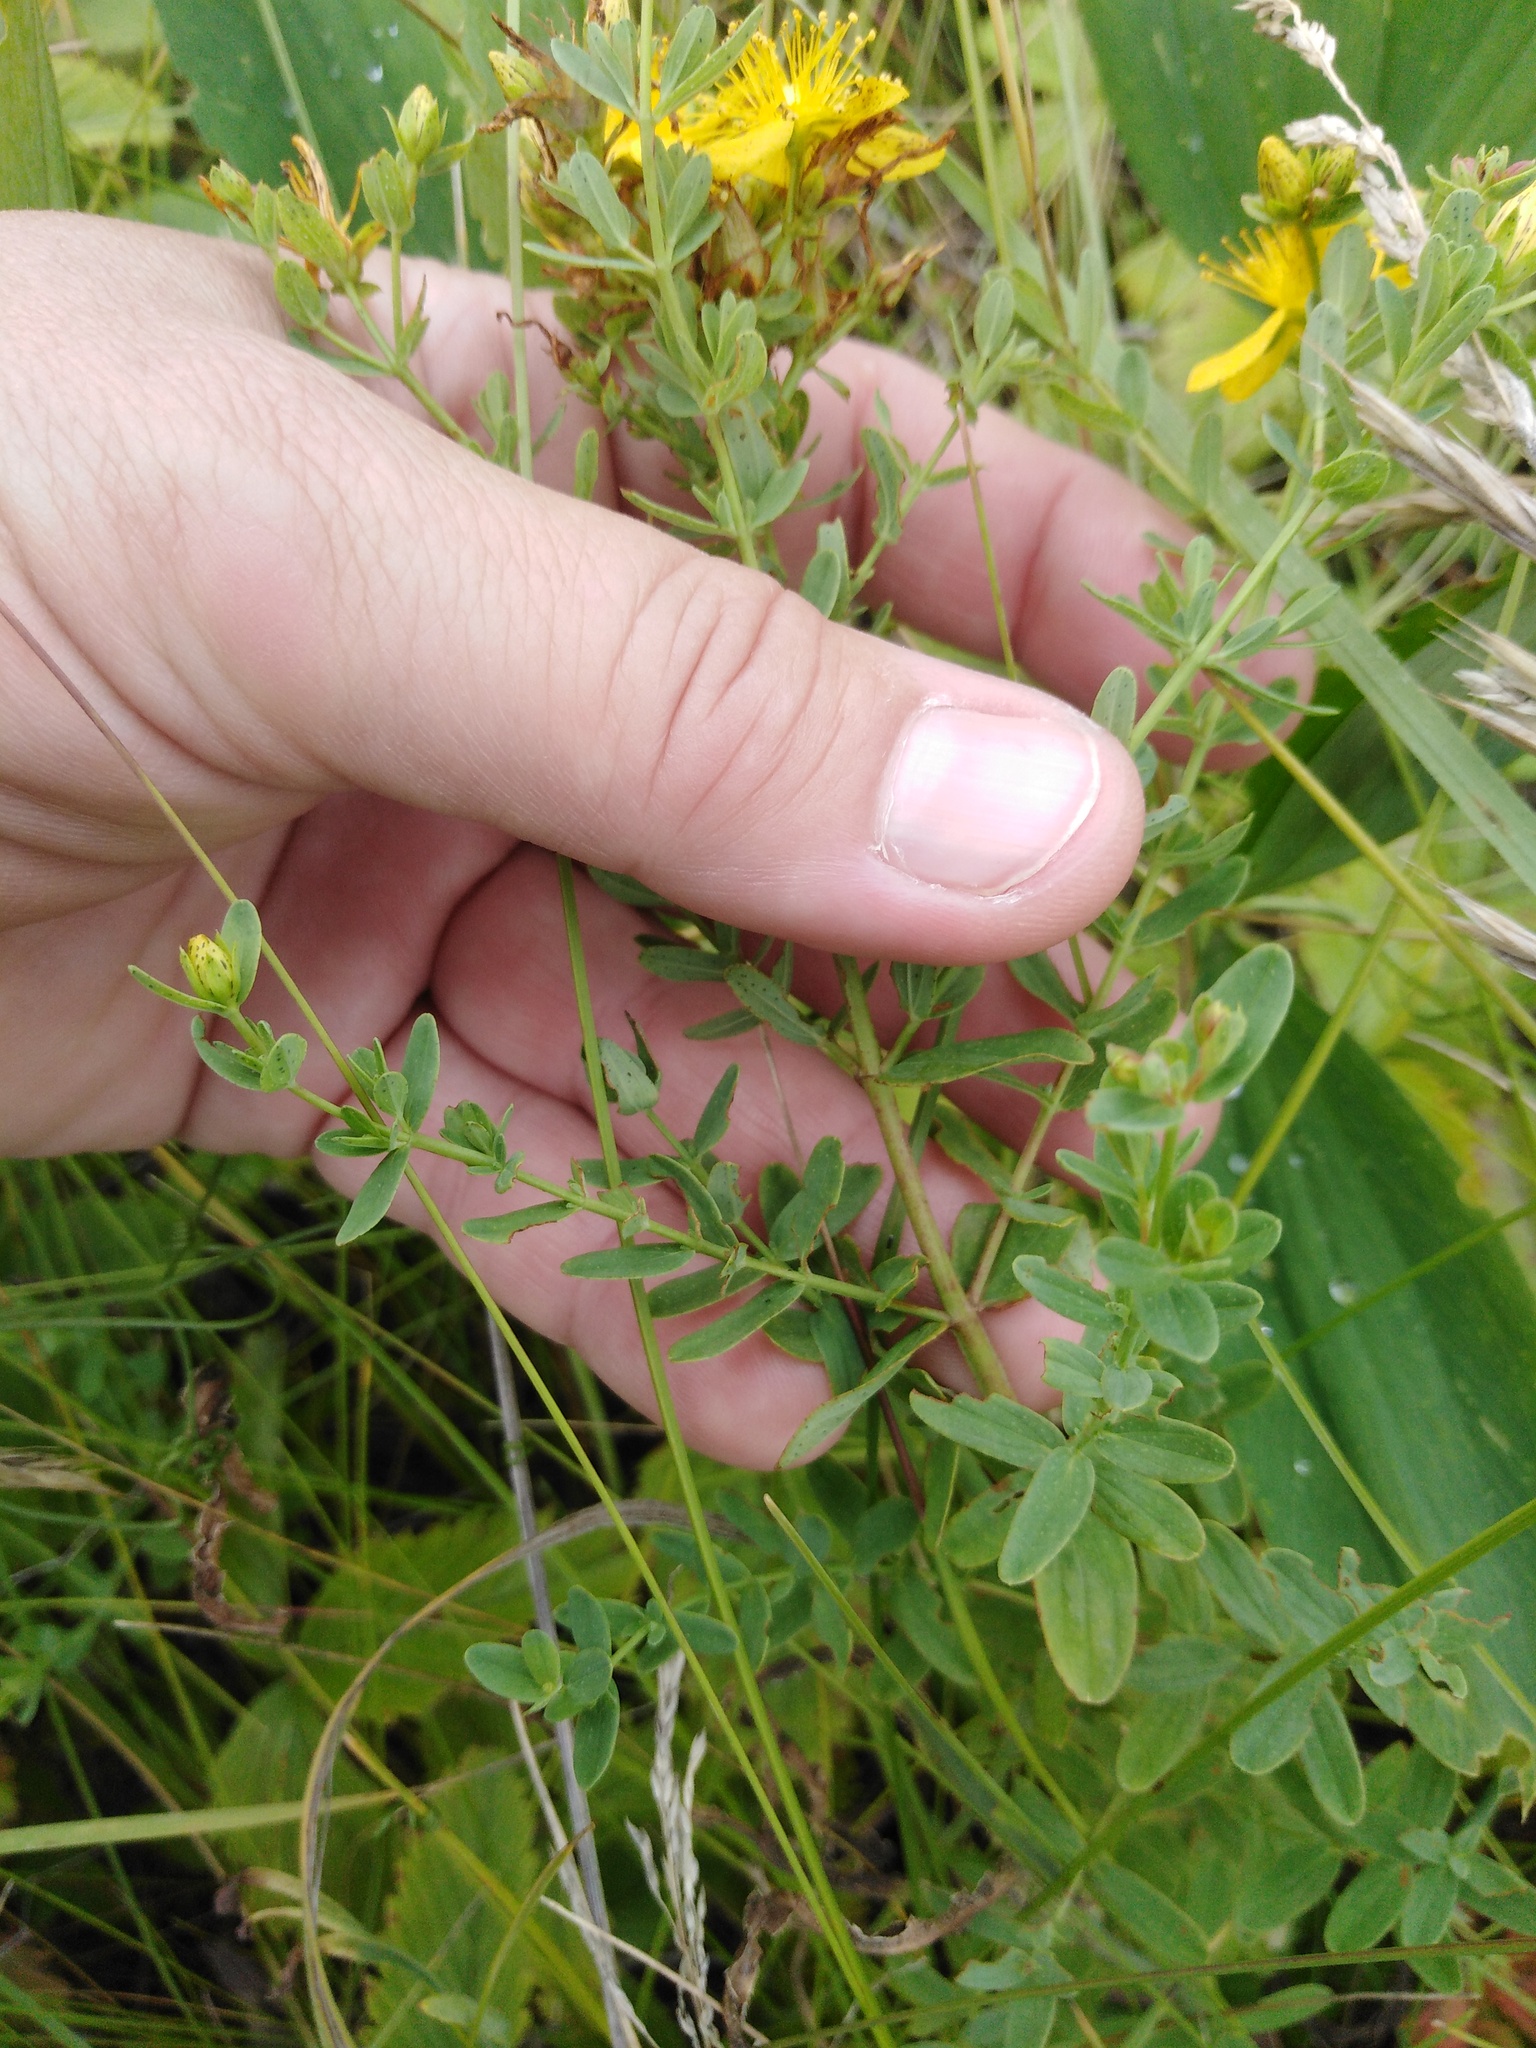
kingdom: Plantae
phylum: Tracheophyta
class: Magnoliopsida
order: Malpighiales
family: Hypericaceae
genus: Hypericum
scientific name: Hypericum perforatum
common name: Common st. johnswort
